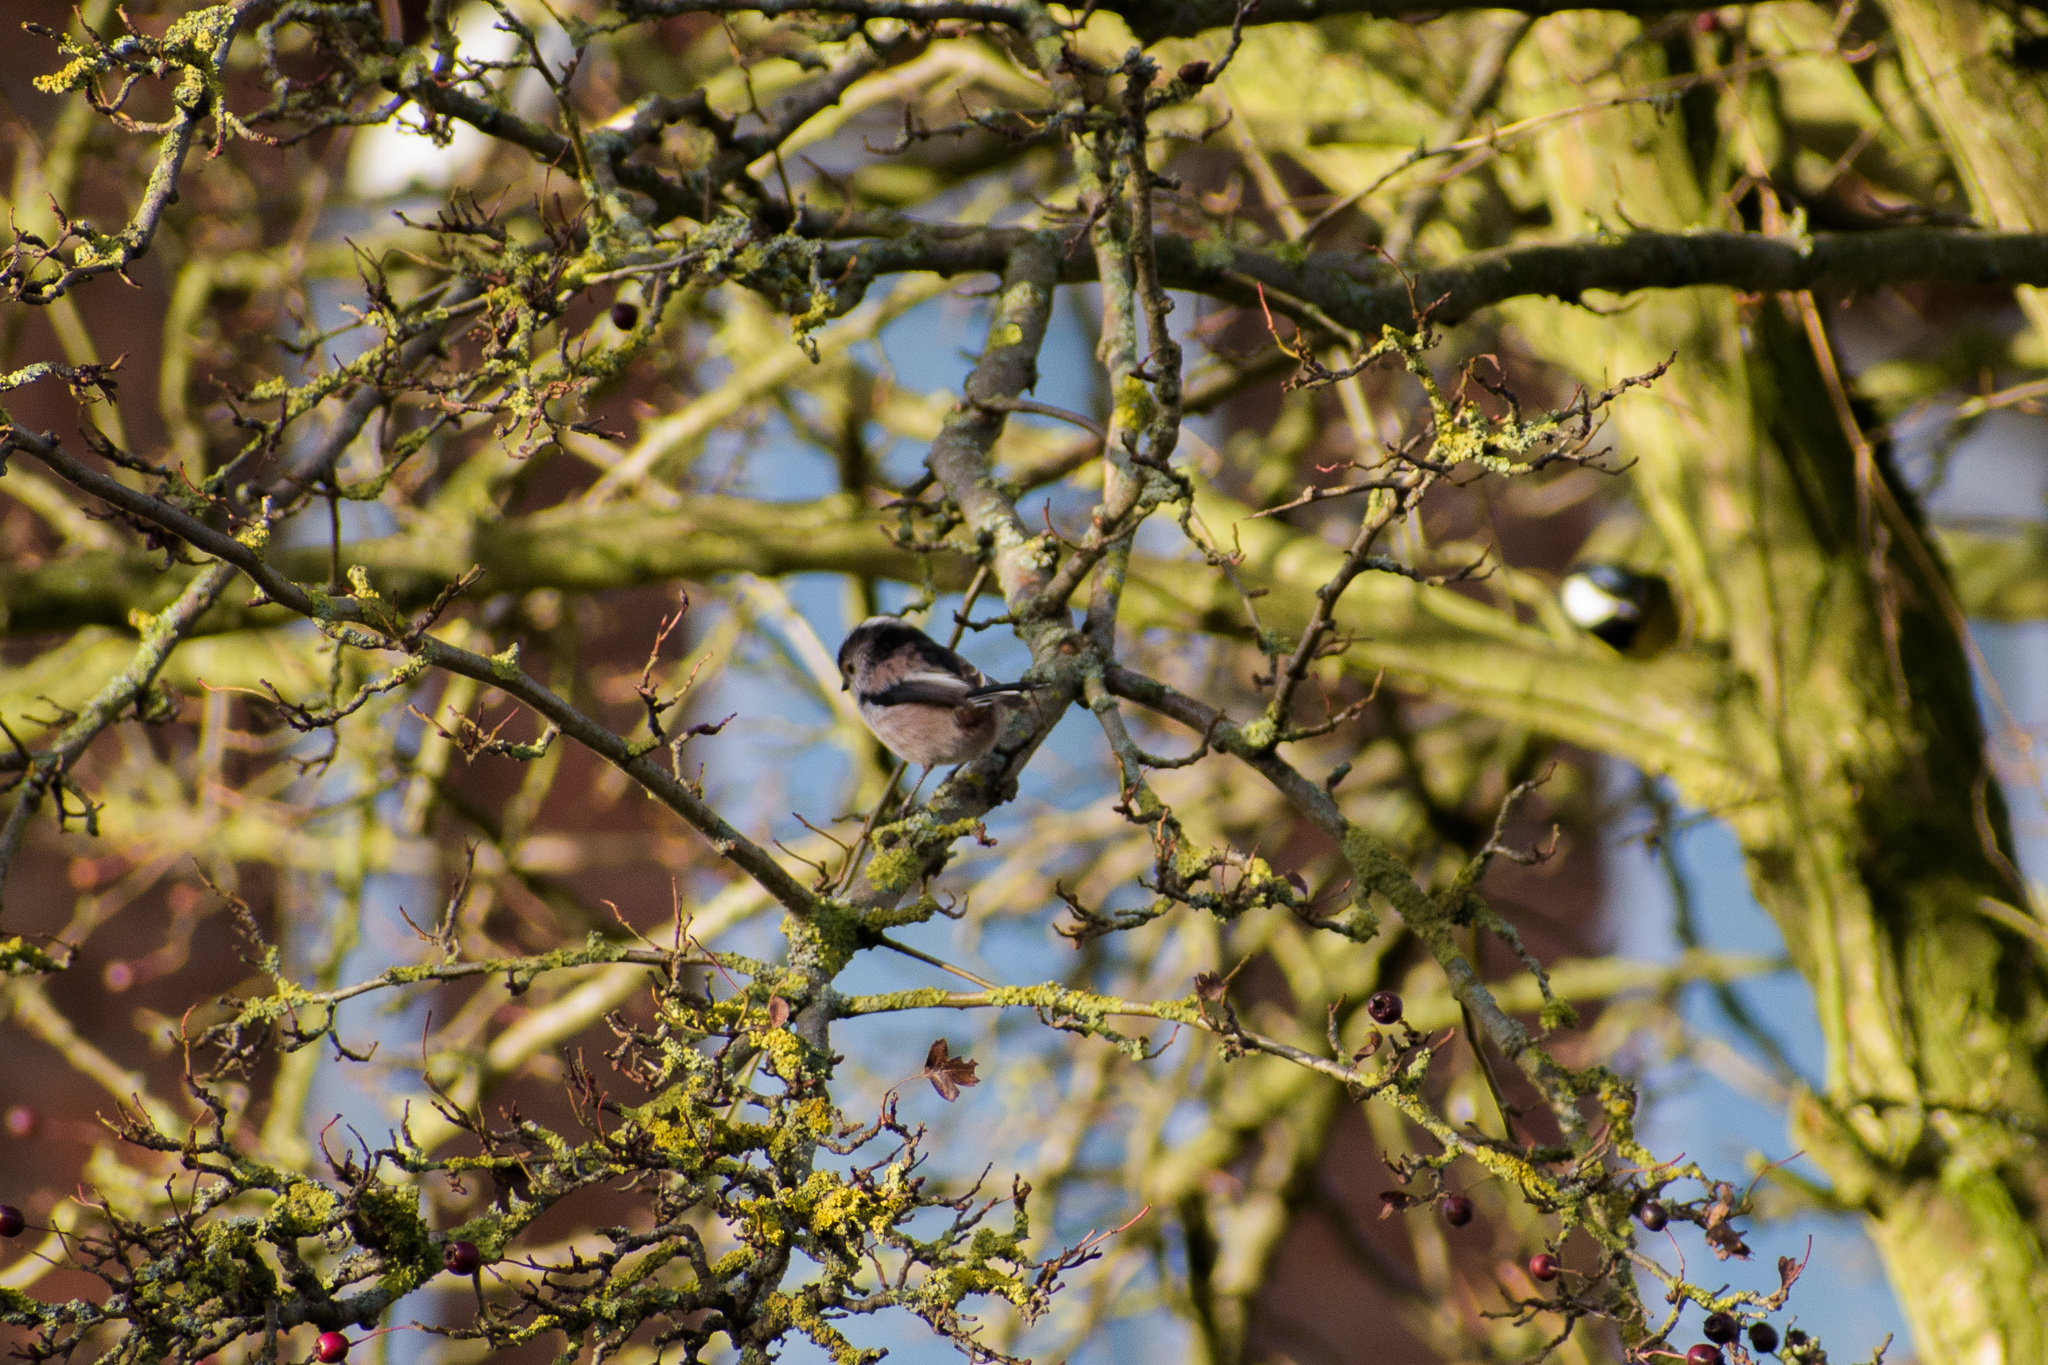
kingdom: Animalia
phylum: Chordata
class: Aves
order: Passeriformes
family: Aegithalidae
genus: Aegithalos
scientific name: Aegithalos caudatus
